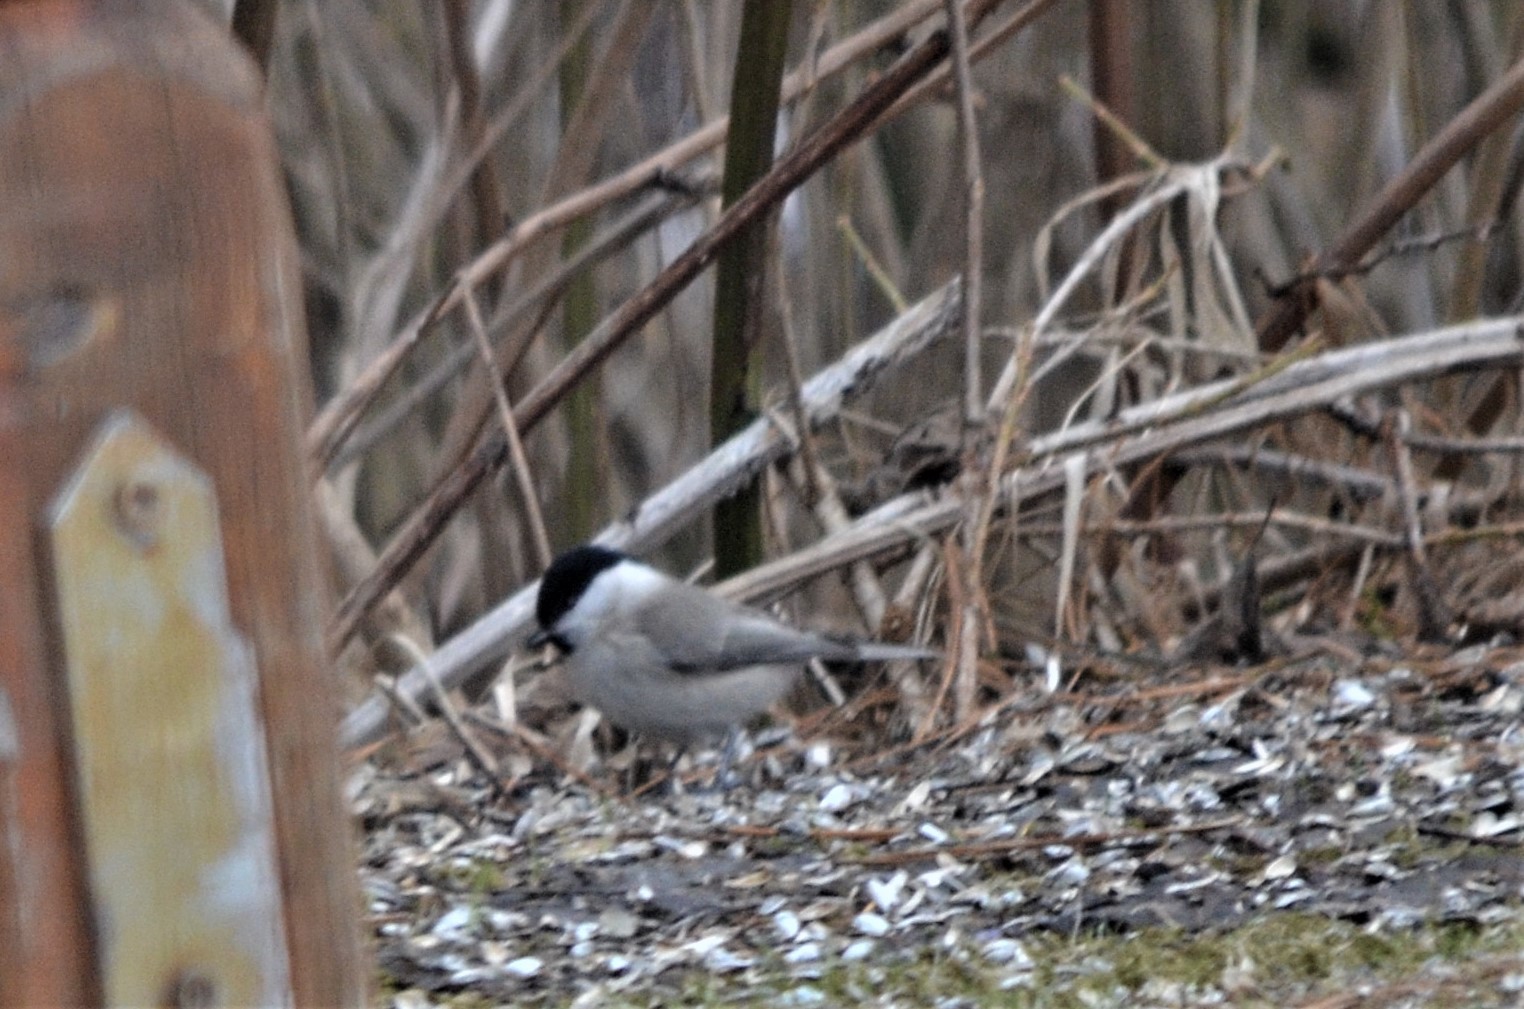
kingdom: Animalia
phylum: Chordata
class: Aves
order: Passeriformes
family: Paridae
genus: Poecile
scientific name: Poecile palustris
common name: Marsh tit
